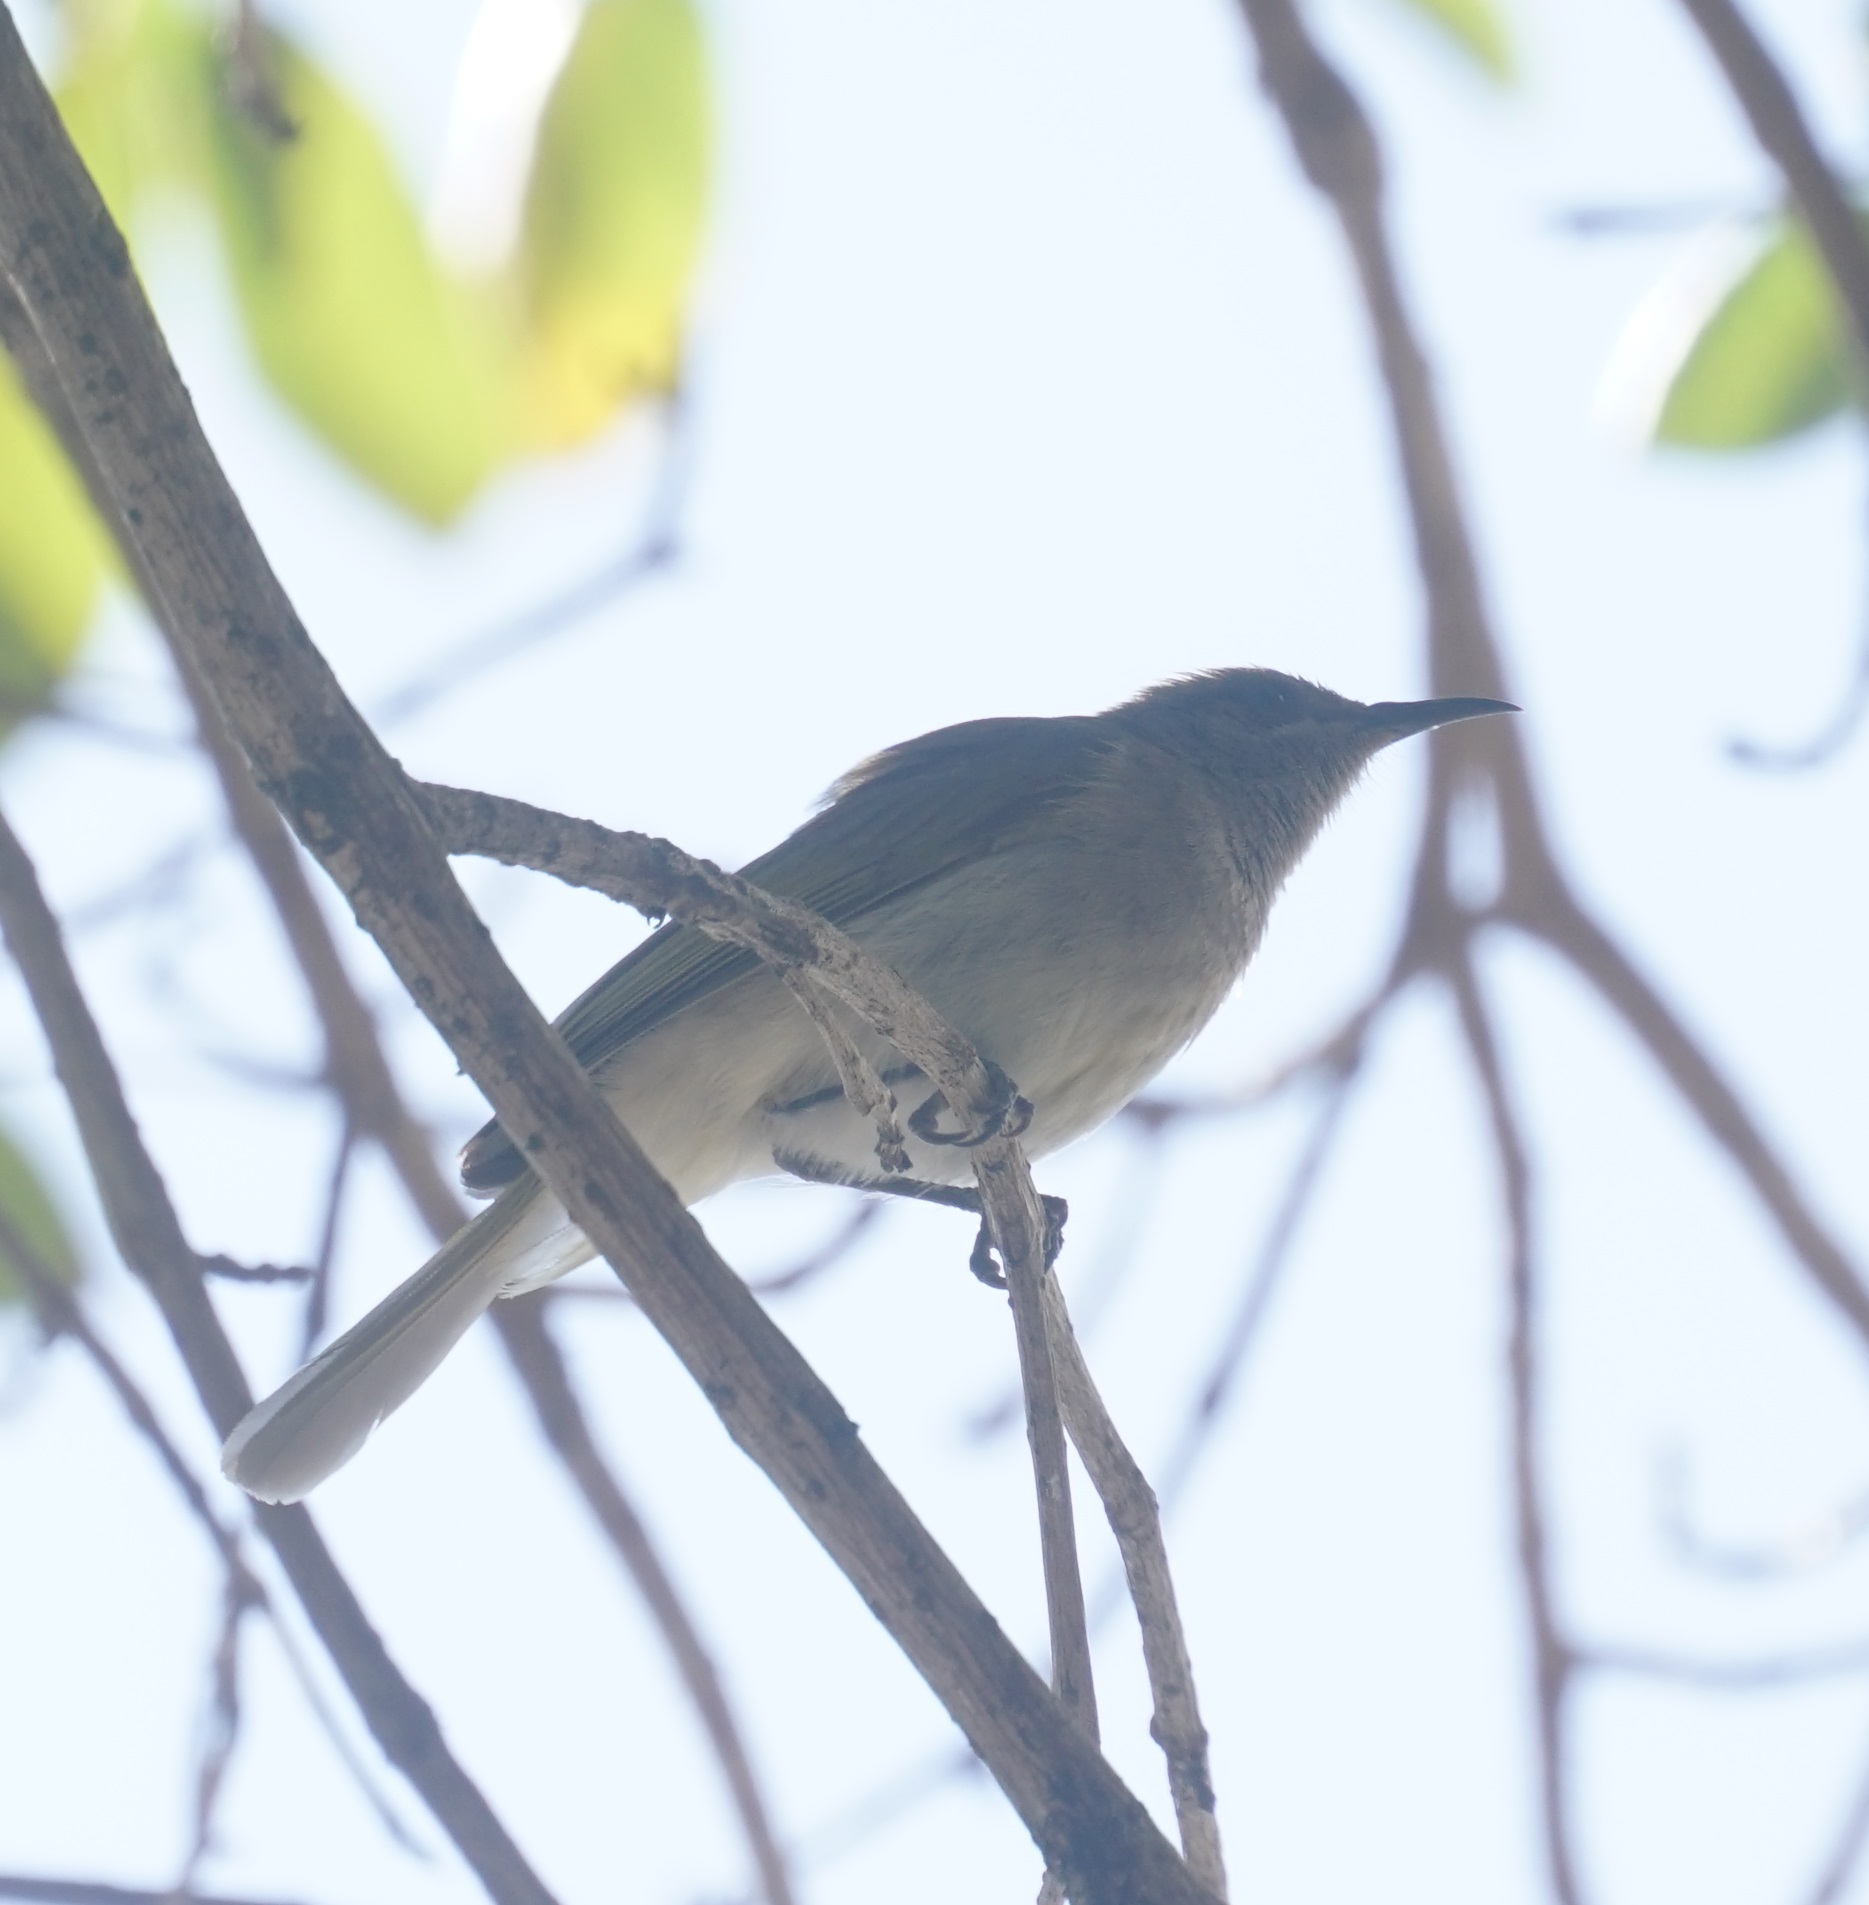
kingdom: Animalia
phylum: Chordata
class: Aves
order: Passeriformes
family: Meliphagidae
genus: Lichmera
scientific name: Lichmera indistincta
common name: Brown honeyeater
